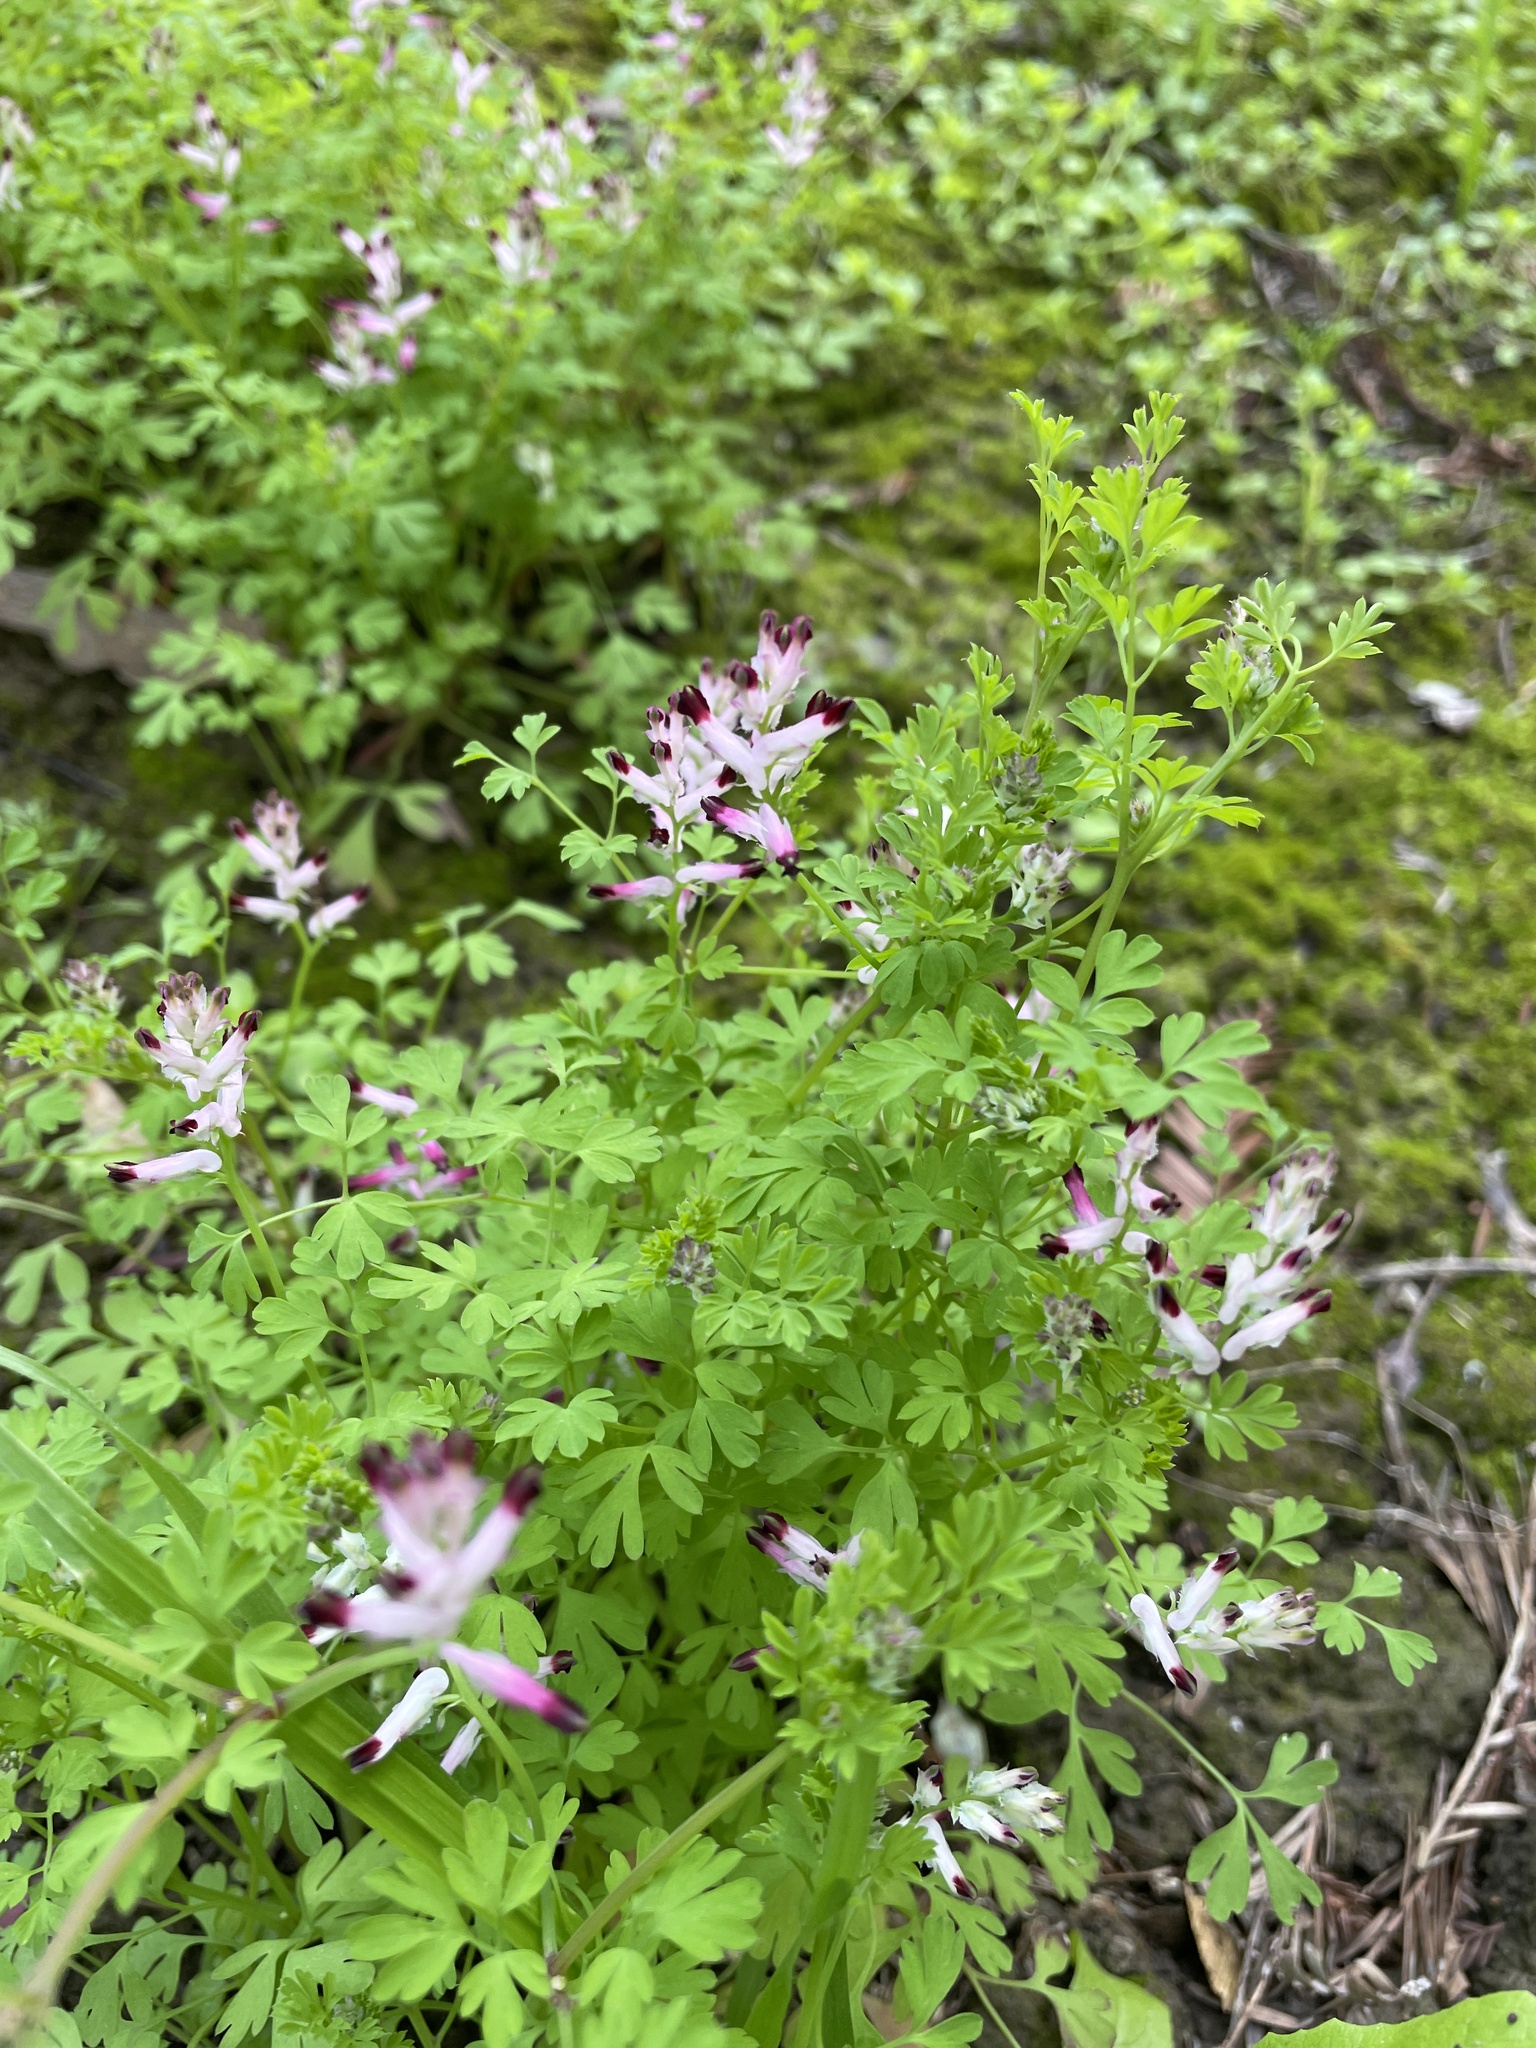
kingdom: Plantae
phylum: Tracheophyta
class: Magnoliopsida
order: Ranunculales
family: Papaveraceae
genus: Fumaria
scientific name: Fumaria muralis
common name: Common ramping-fumitory
